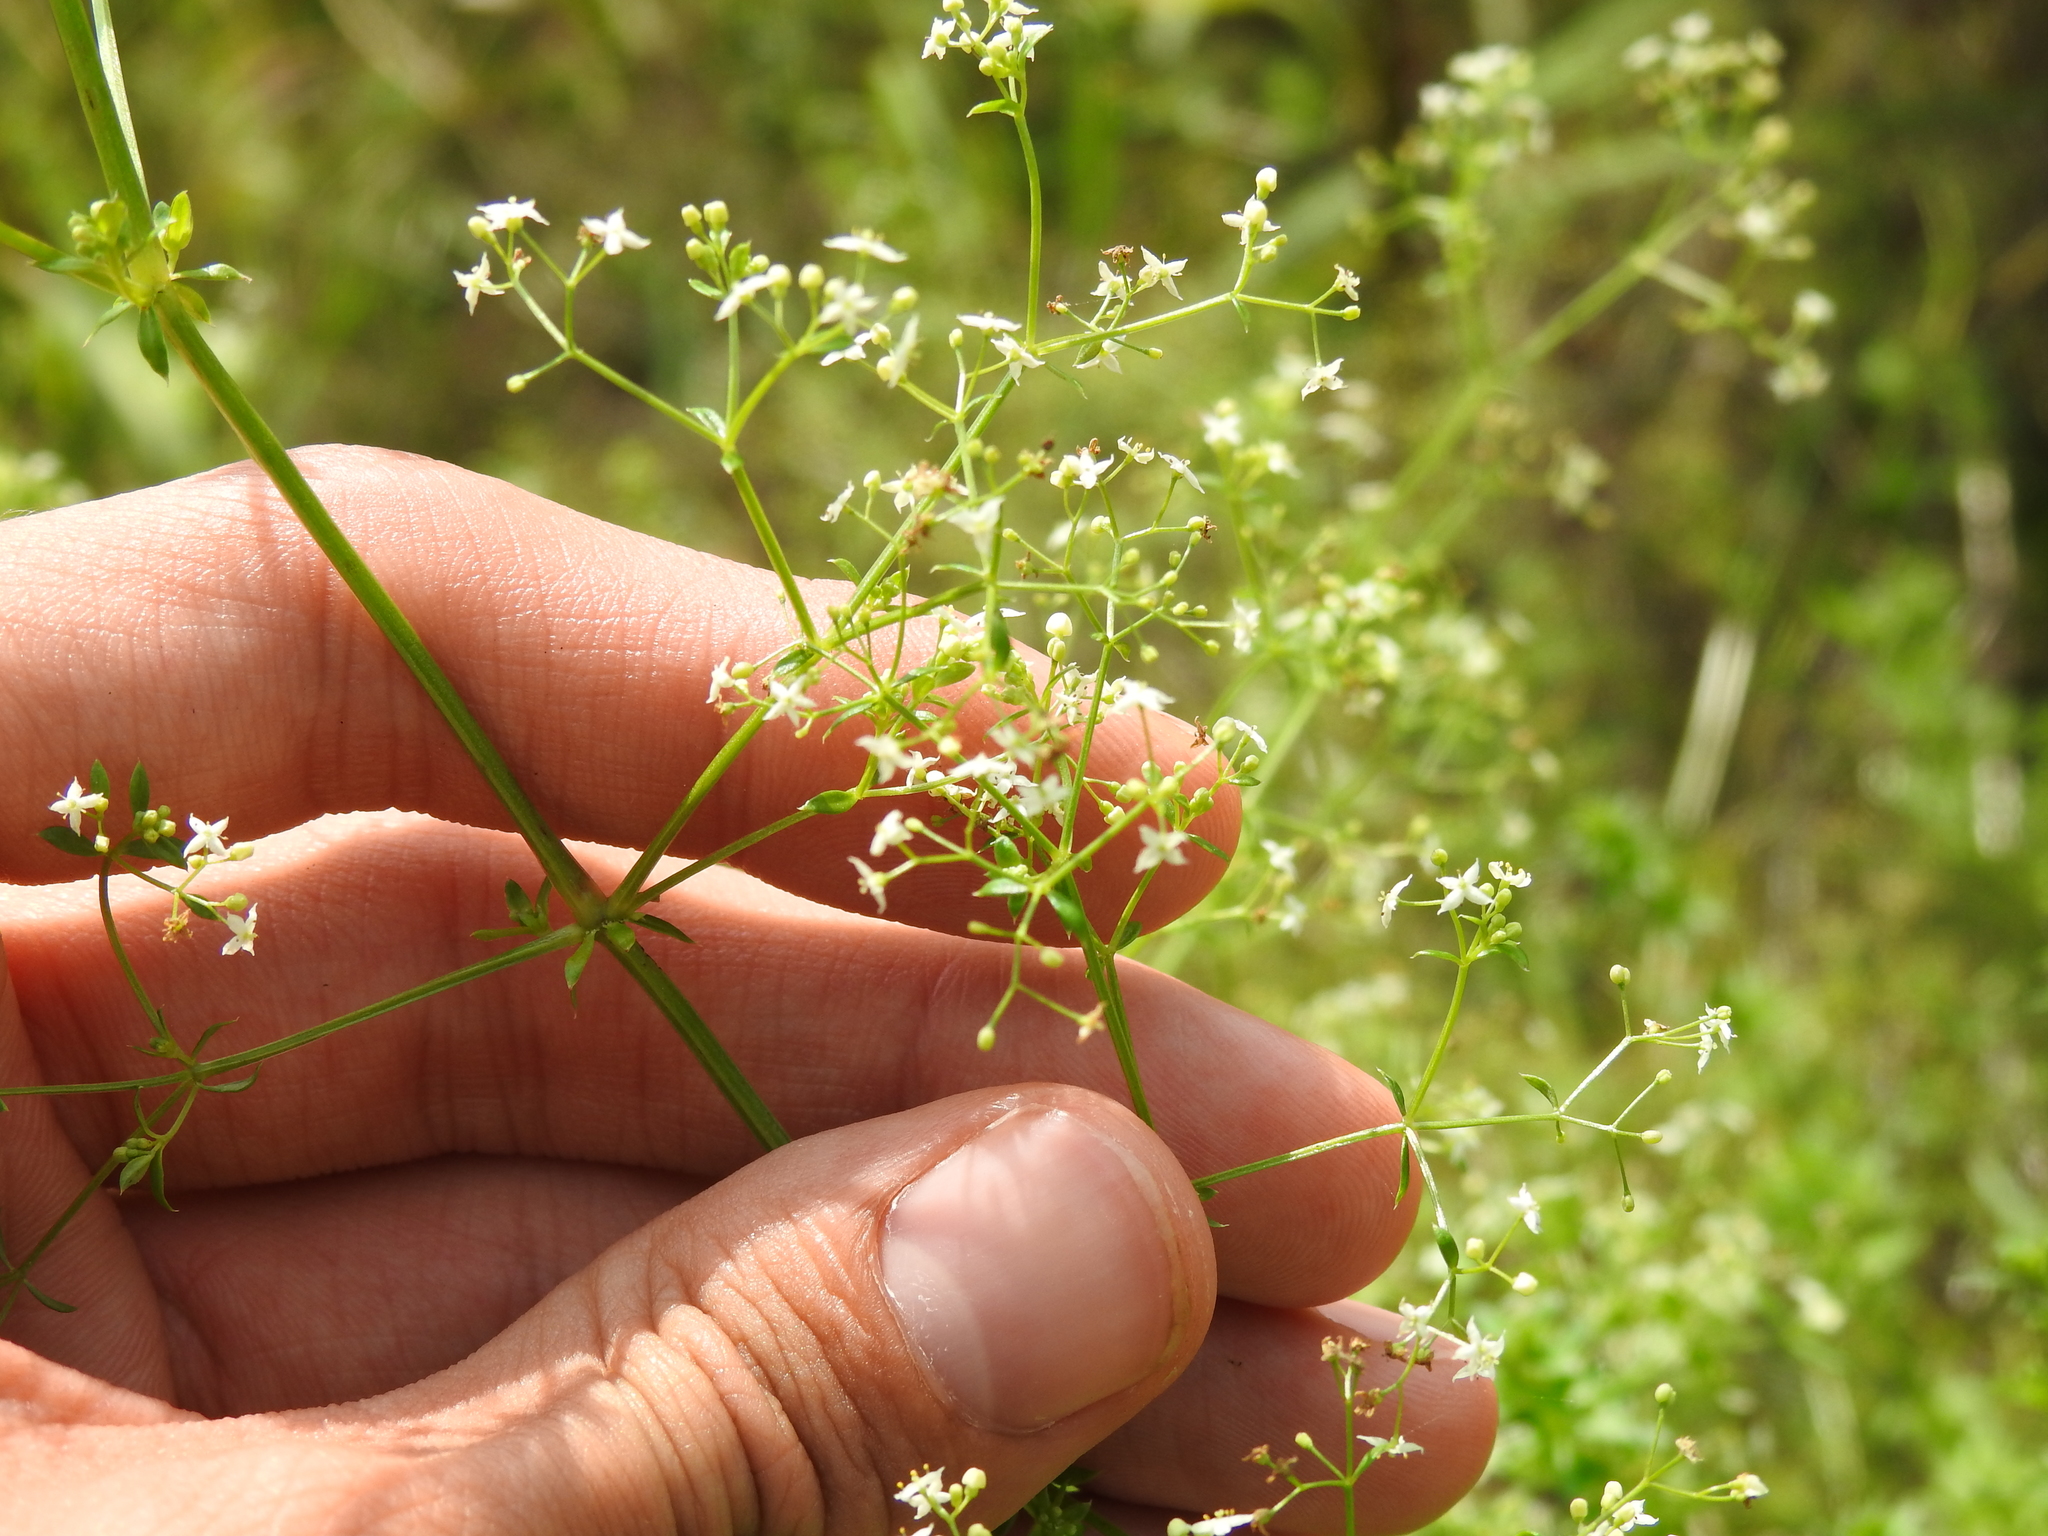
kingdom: Plantae
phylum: Tracheophyta
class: Magnoliopsida
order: Gentianales
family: Rubiaceae
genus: Galium
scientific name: Galium mollugo
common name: Hedge bedstraw
